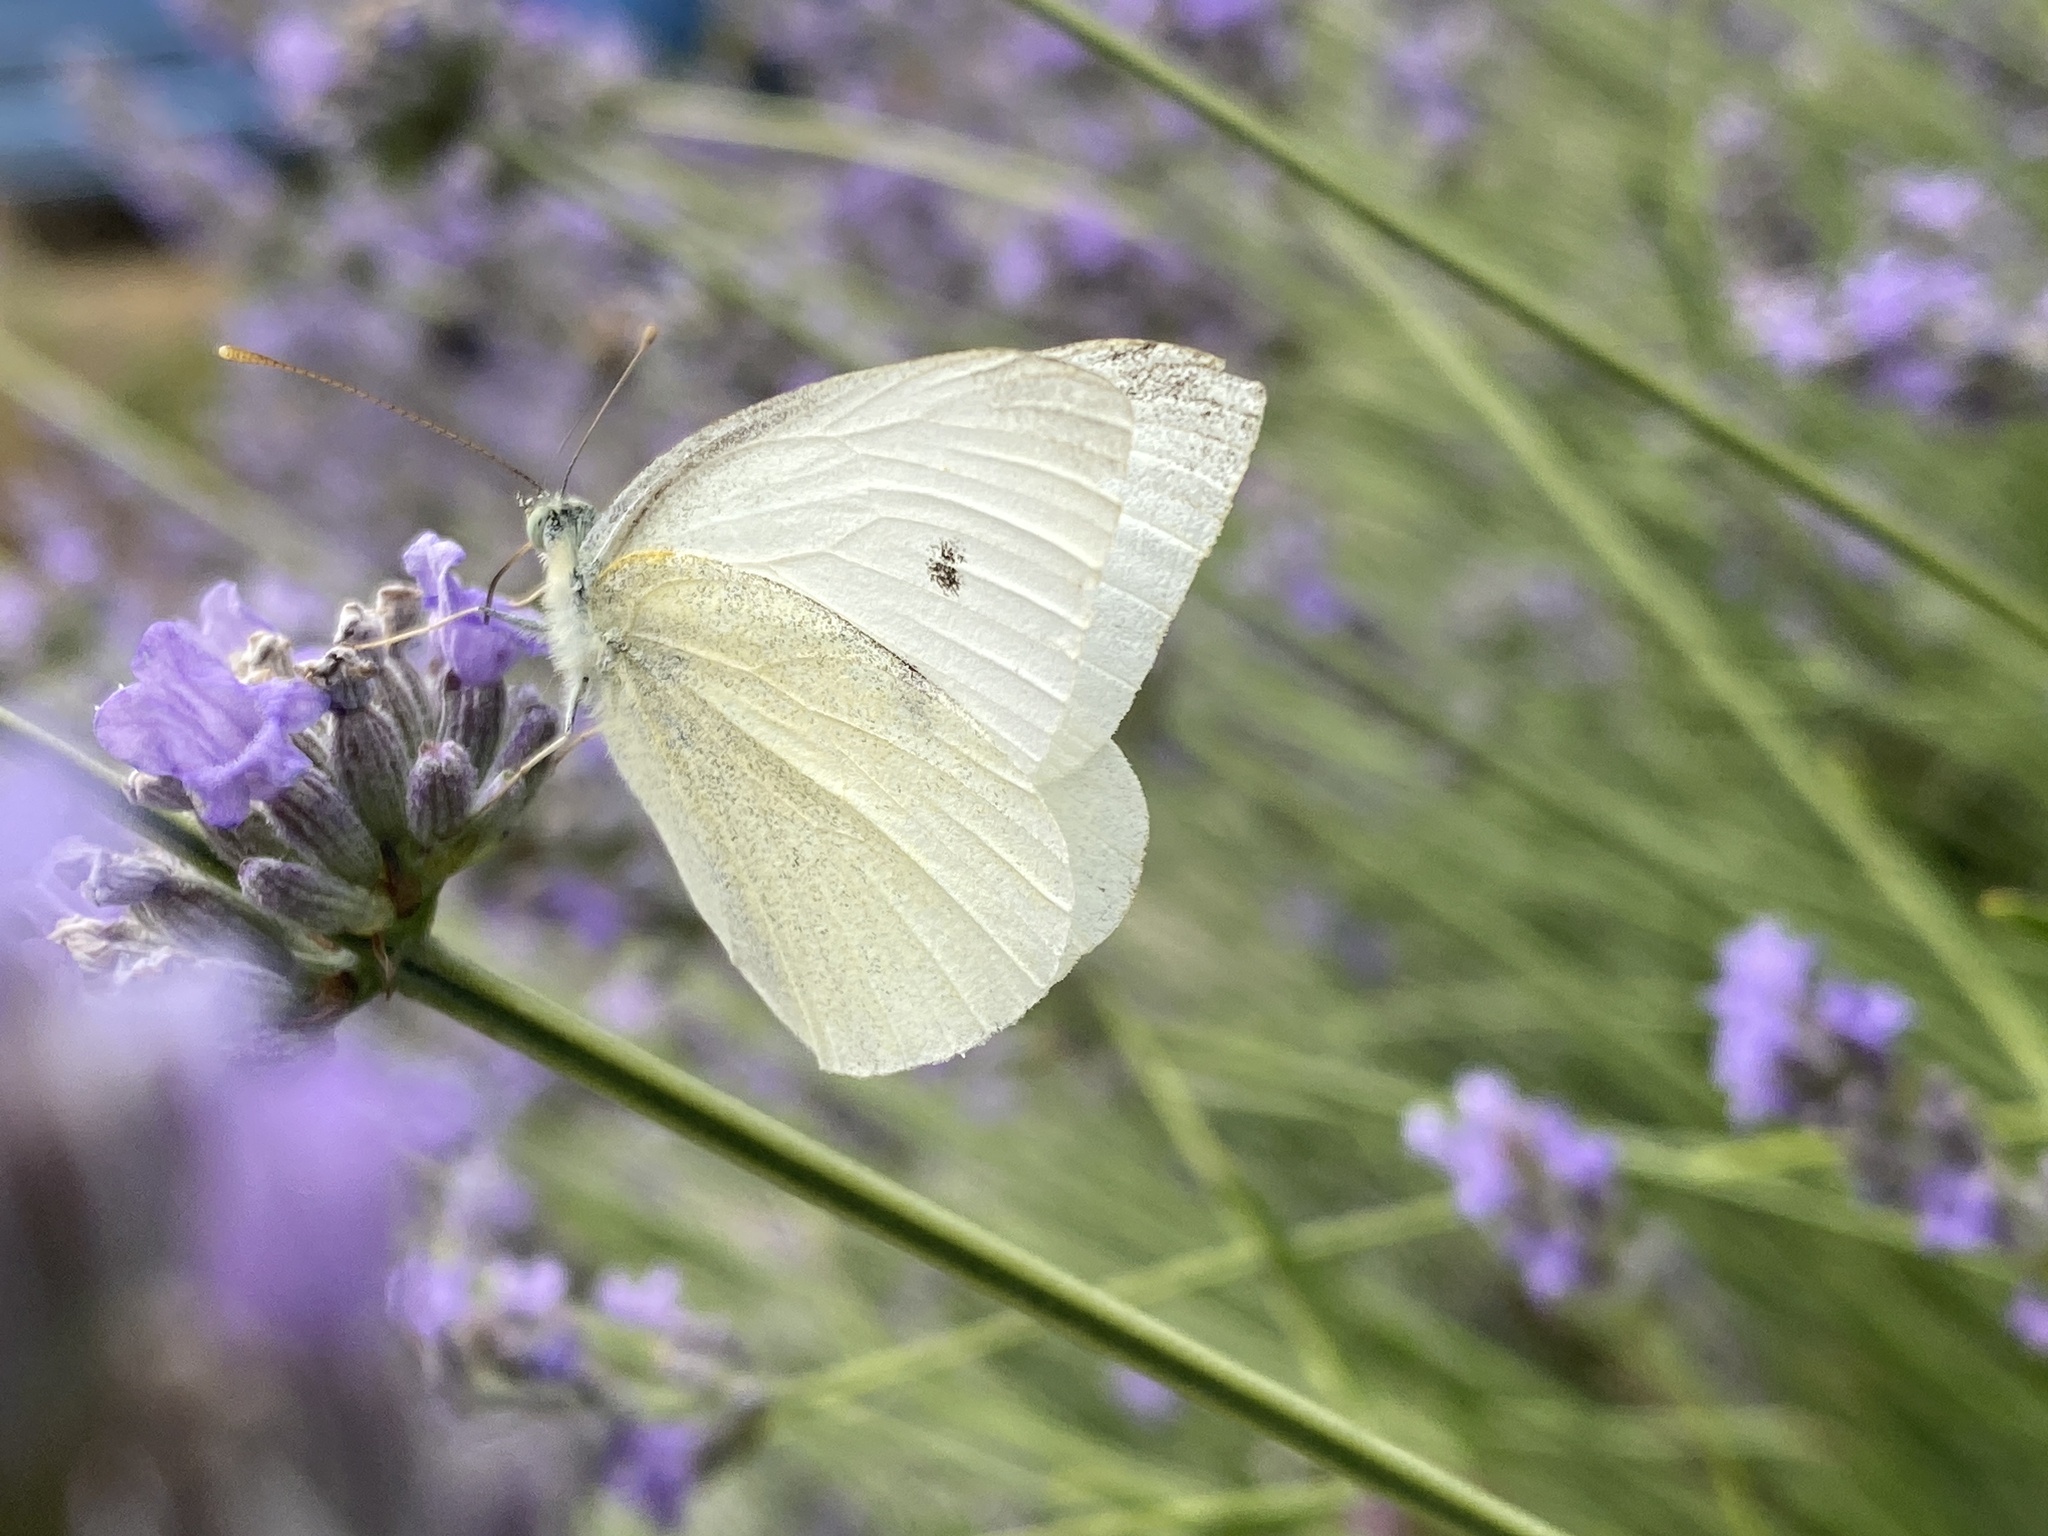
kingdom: Animalia
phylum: Arthropoda
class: Insecta
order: Lepidoptera
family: Pieridae
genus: Pieris
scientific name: Pieris rapae
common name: Small white
